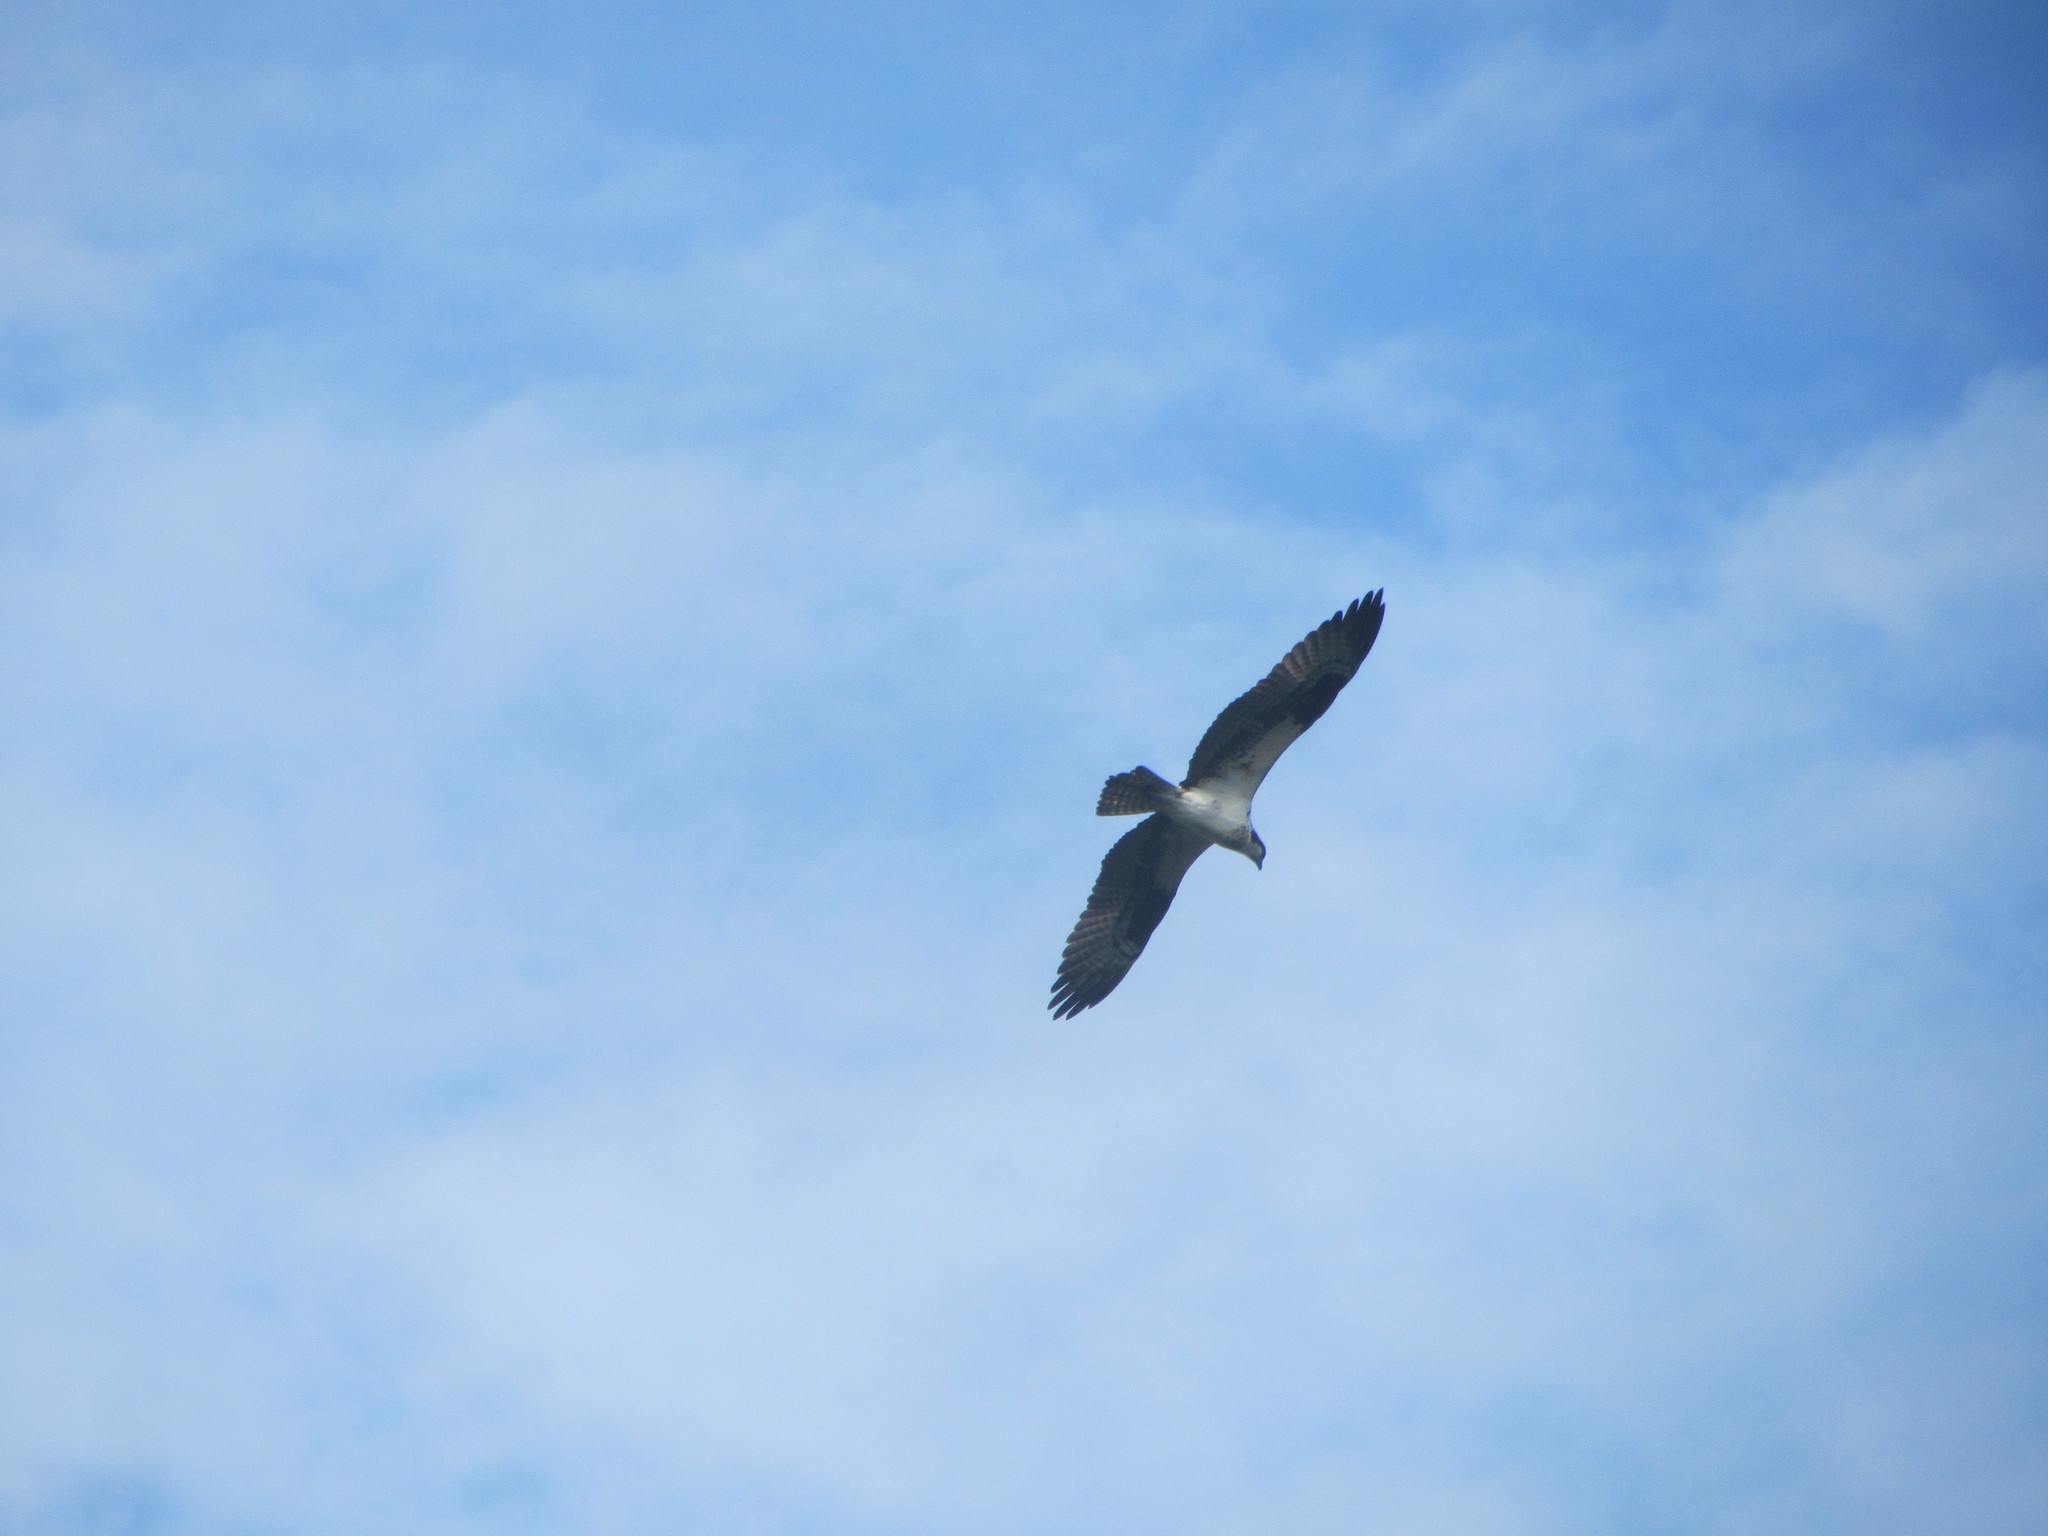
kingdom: Animalia
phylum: Chordata
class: Aves
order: Accipitriformes
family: Pandionidae
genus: Pandion
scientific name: Pandion haliaetus
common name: Osprey
